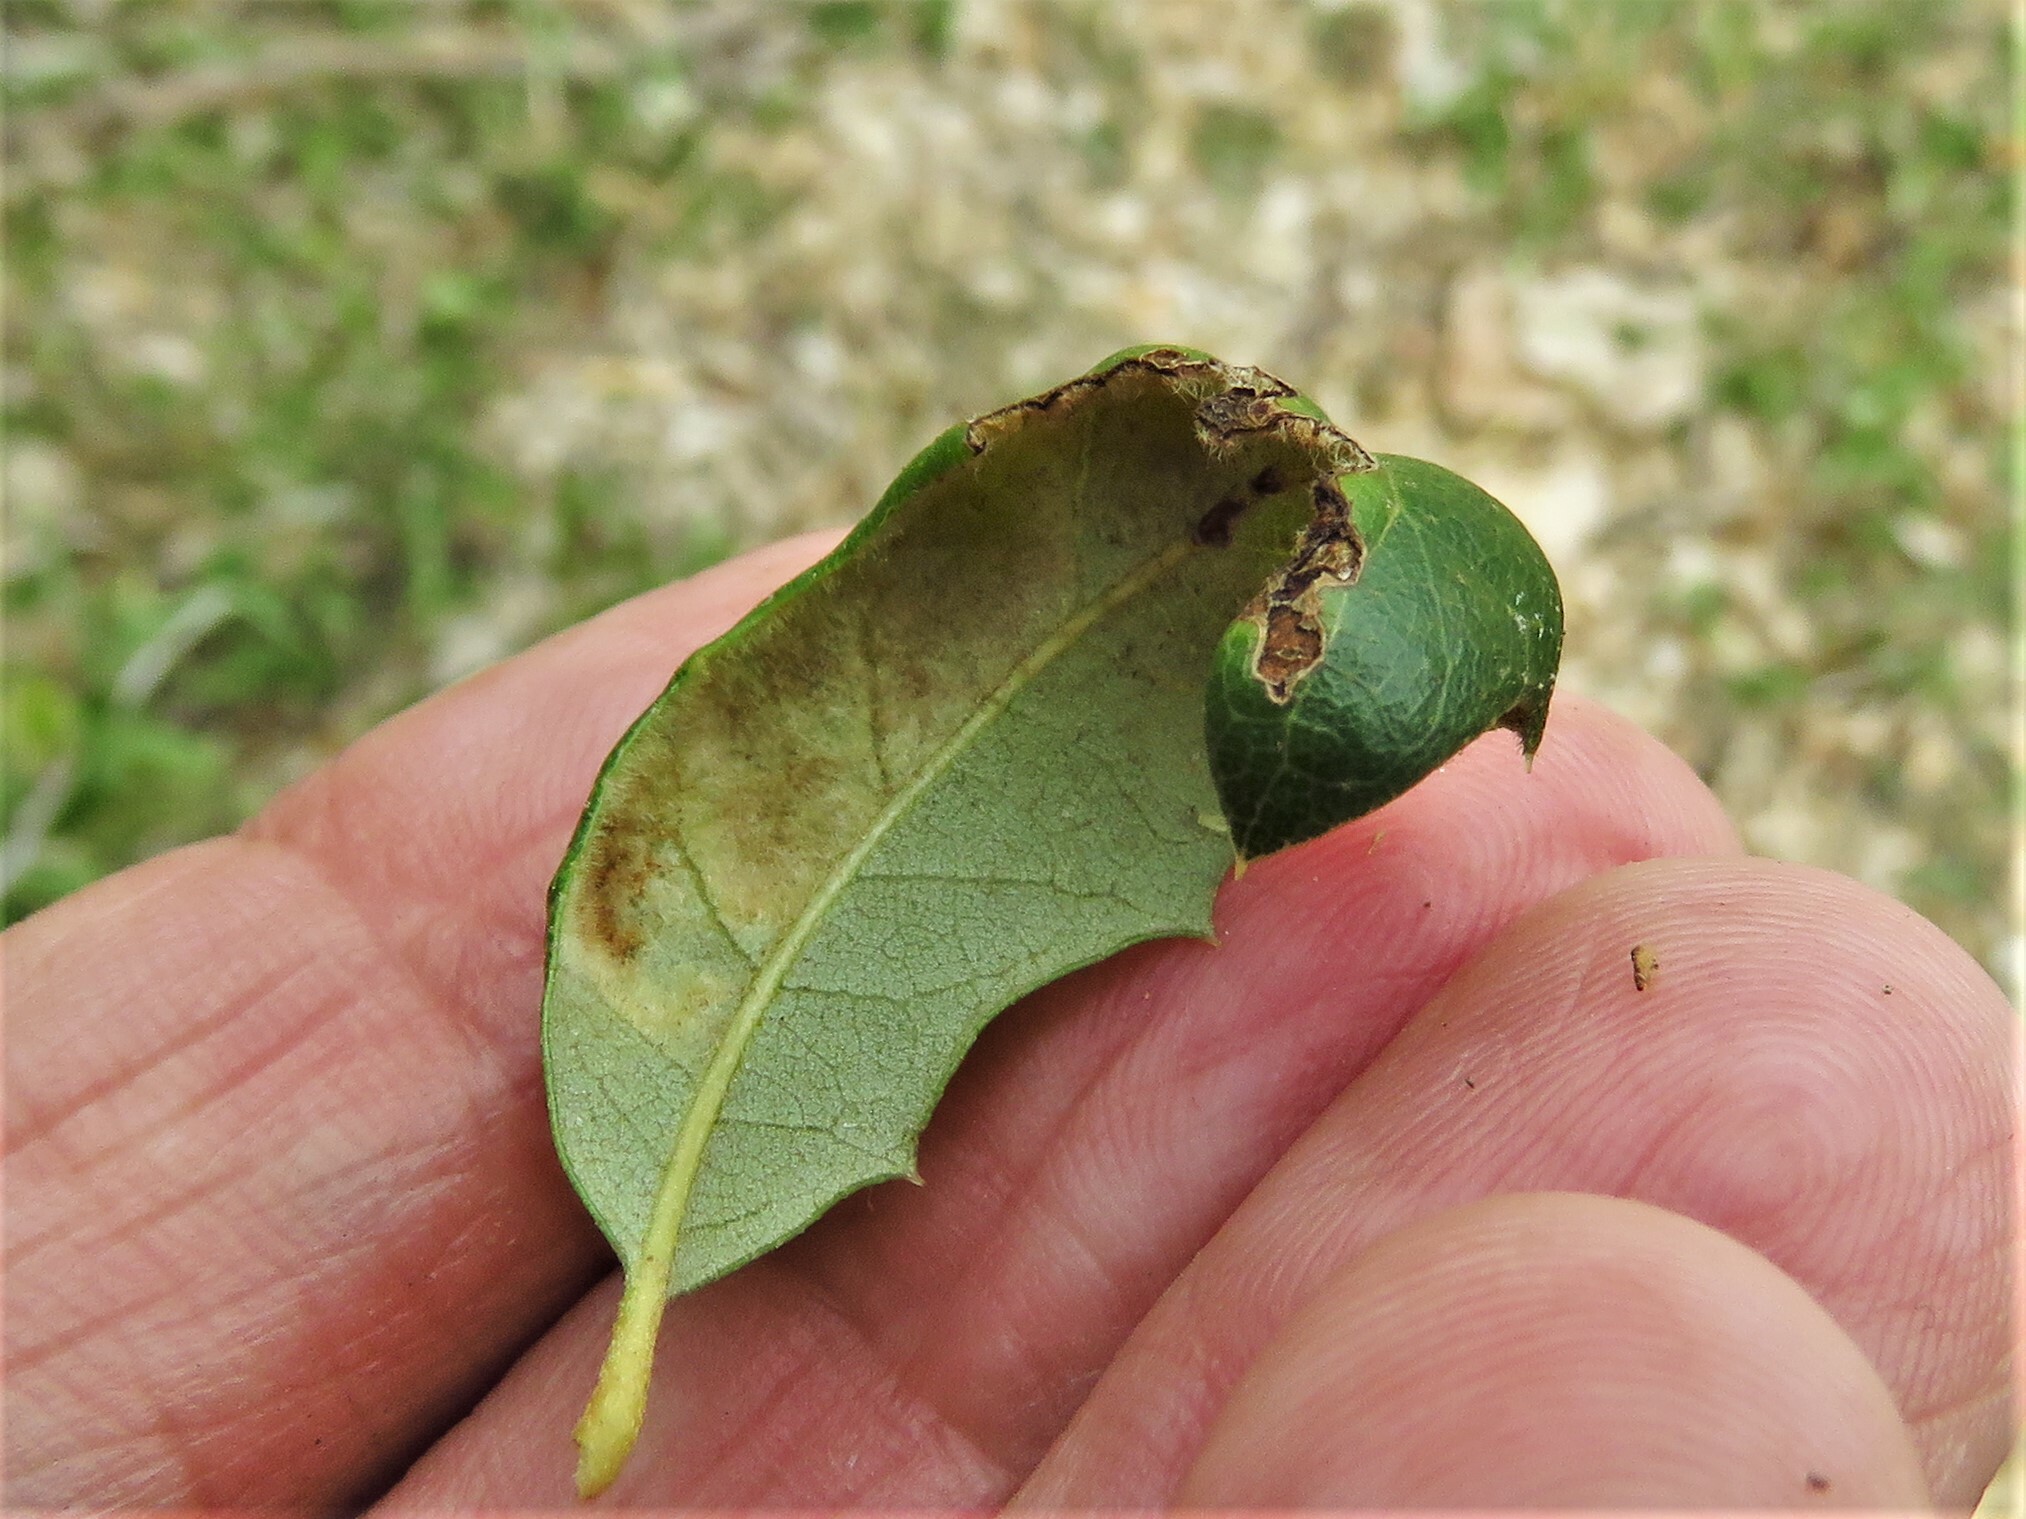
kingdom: Animalia
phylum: Arthropoda
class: Arachnida
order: Trombidiformes
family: Eriophyidae
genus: Aceria
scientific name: Aceria quercina
